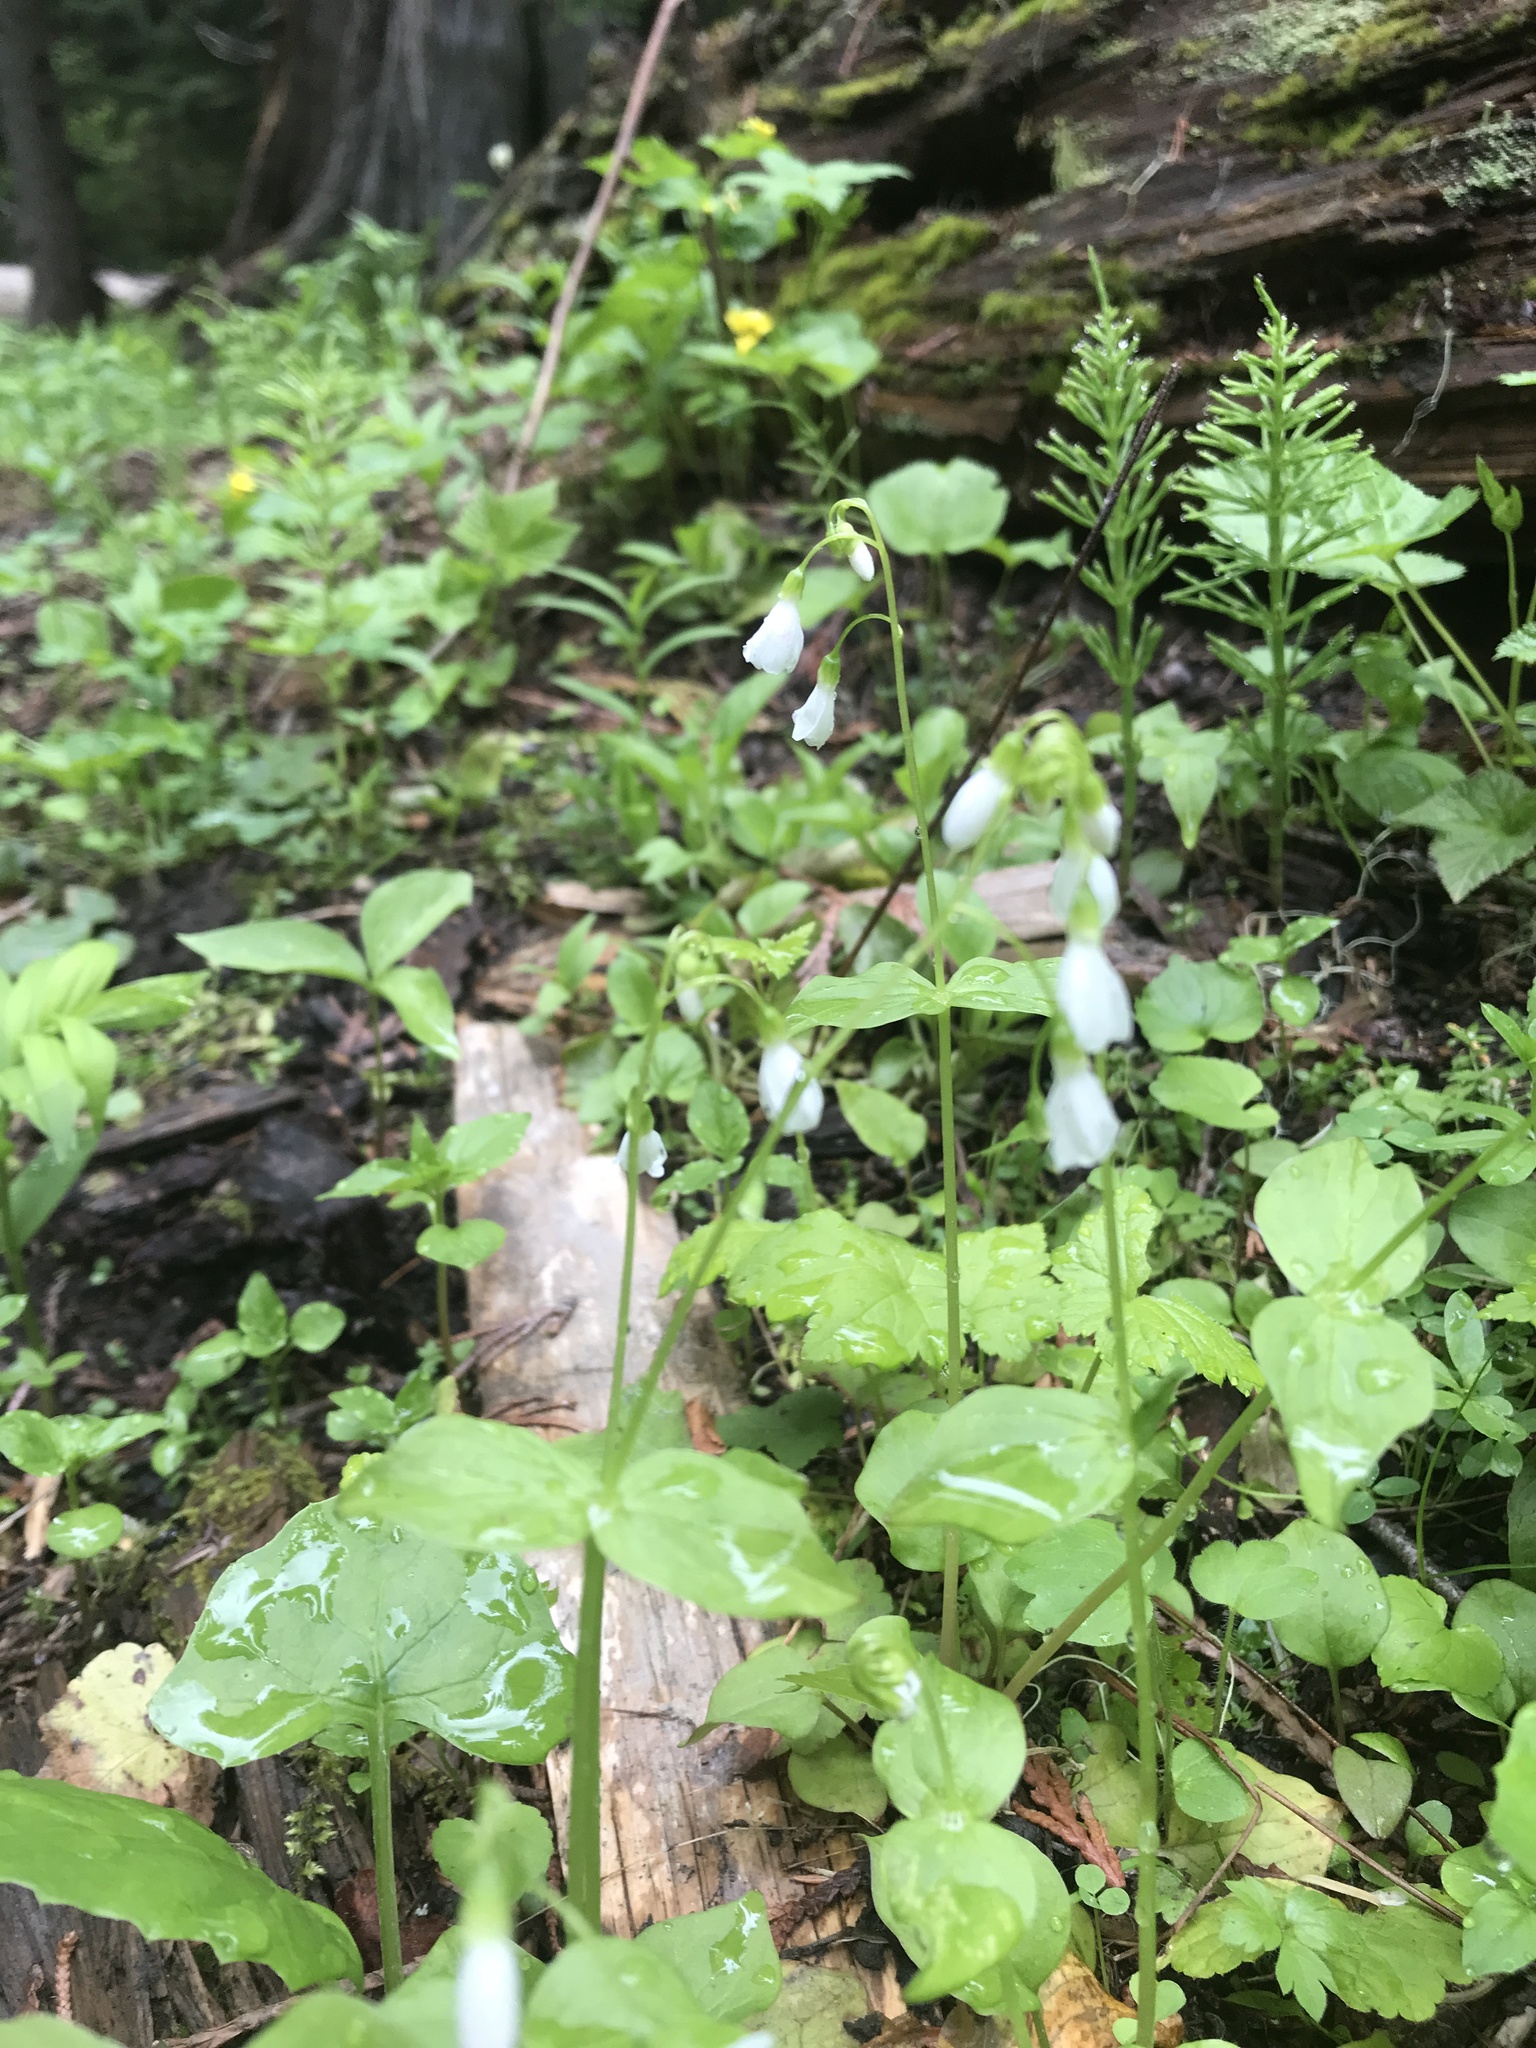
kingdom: Plantae
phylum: Tracheophyta
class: Magnoliopsida
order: Caryophyllales
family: Montiaceae
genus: Claytonia
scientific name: Claytonia cordifolia
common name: Broad-leaved spring beauty
